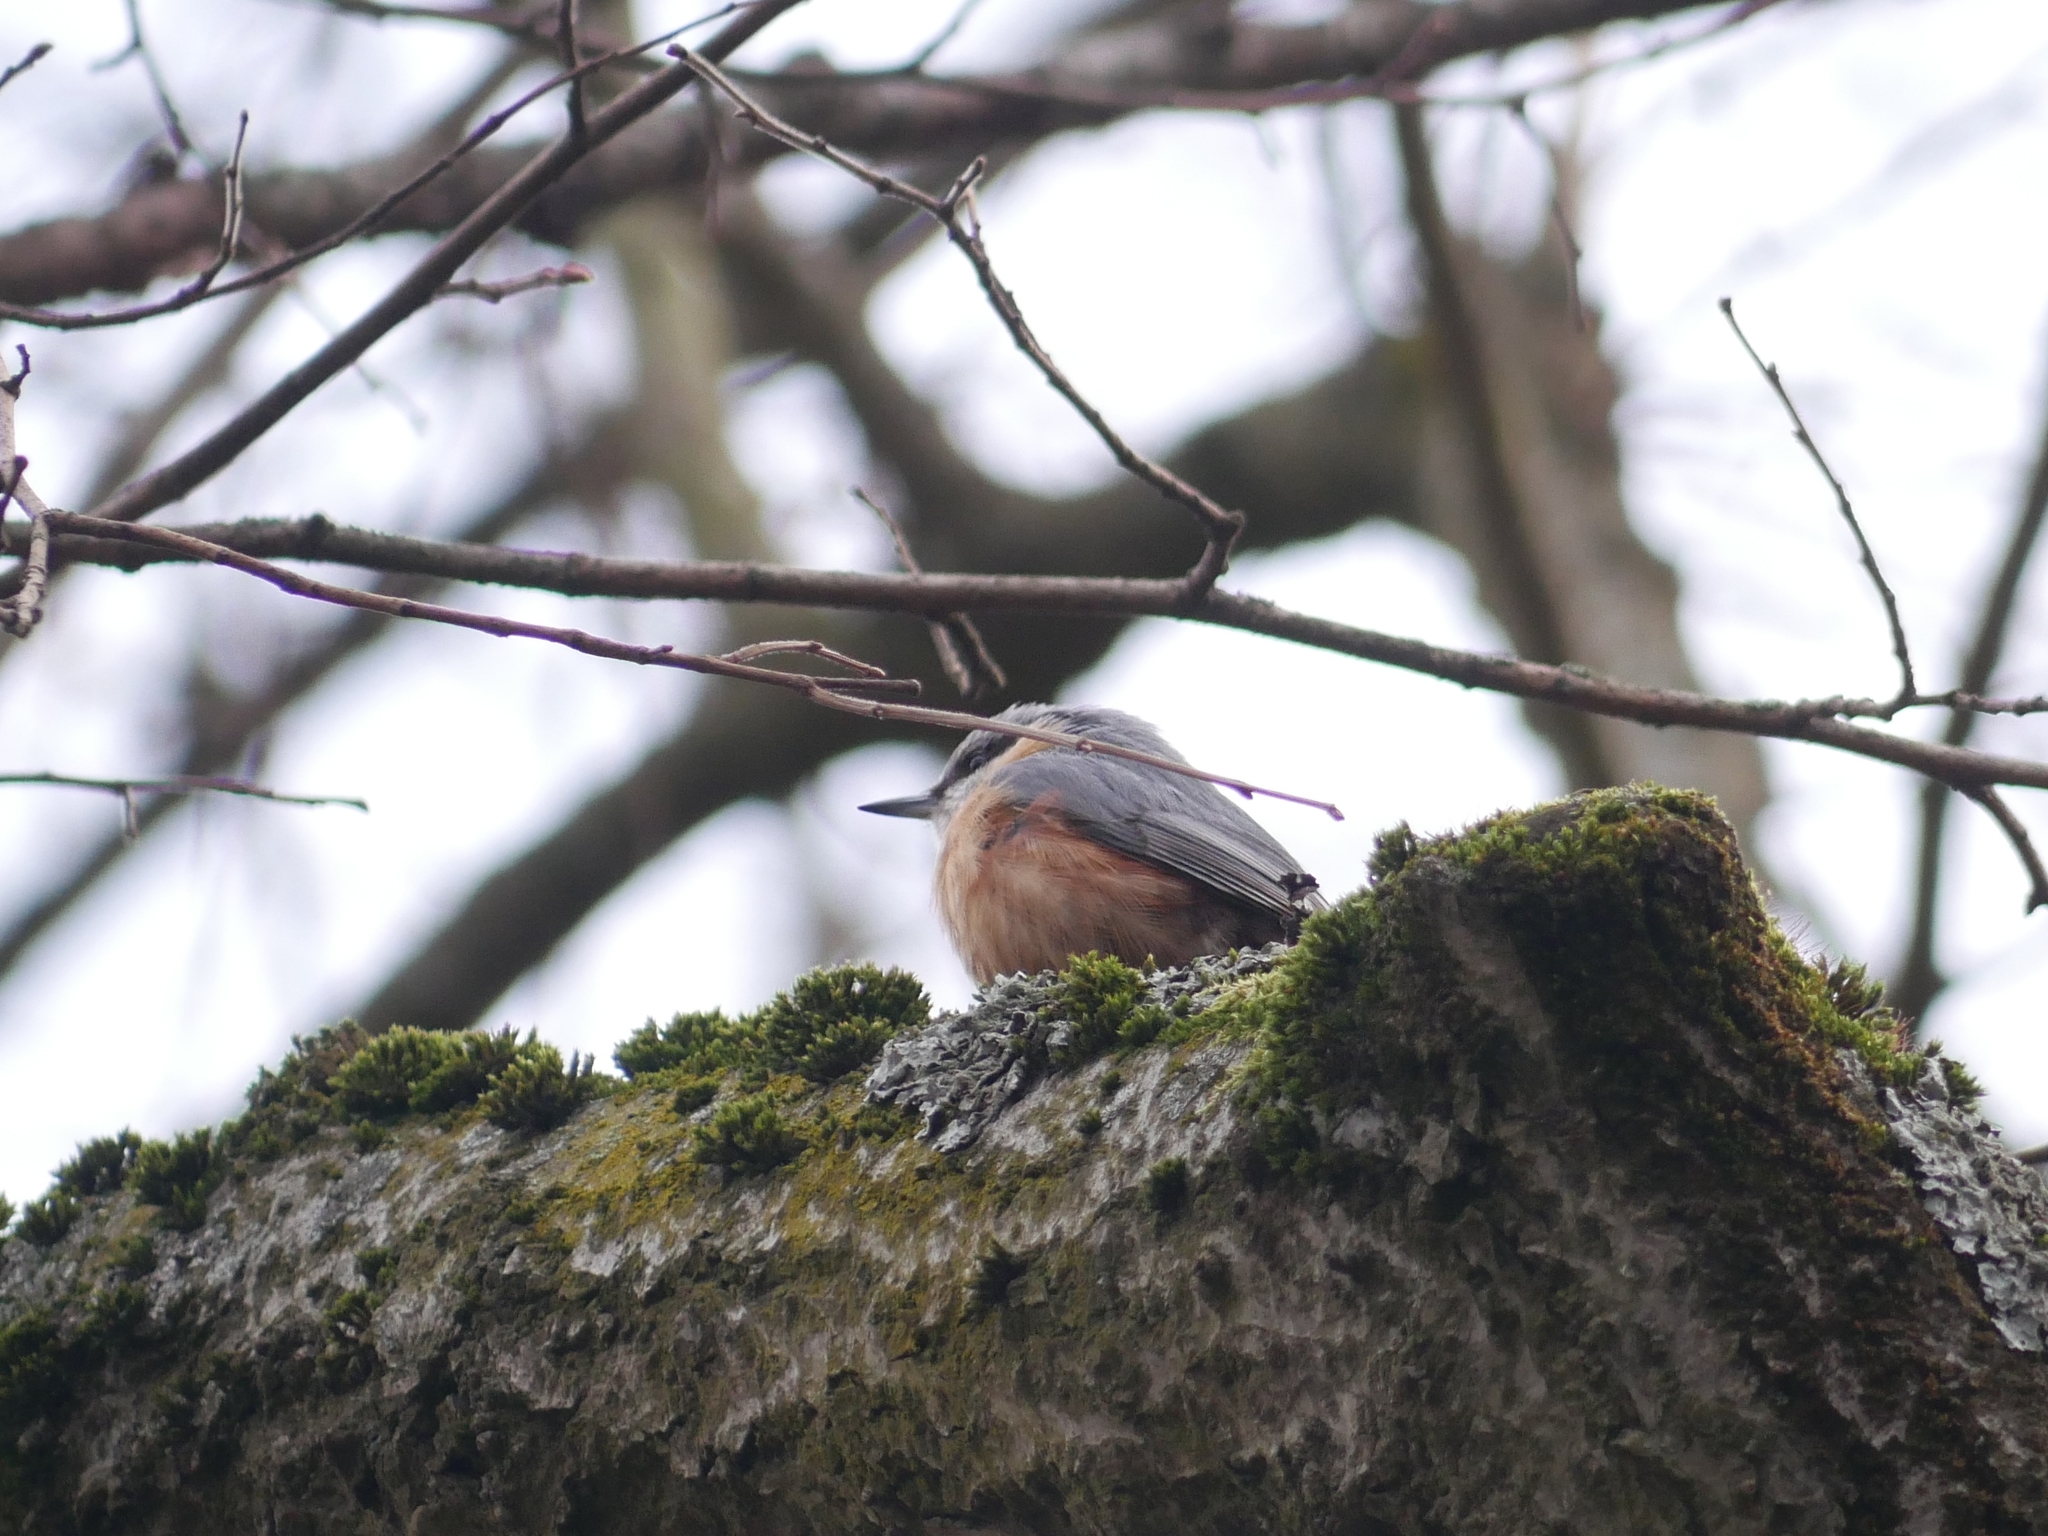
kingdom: Animalia
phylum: Chordata
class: Aves
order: Passeriformes
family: Sittidae
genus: Sitta
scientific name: Sitta europaea
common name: Eurasian nuthatch
